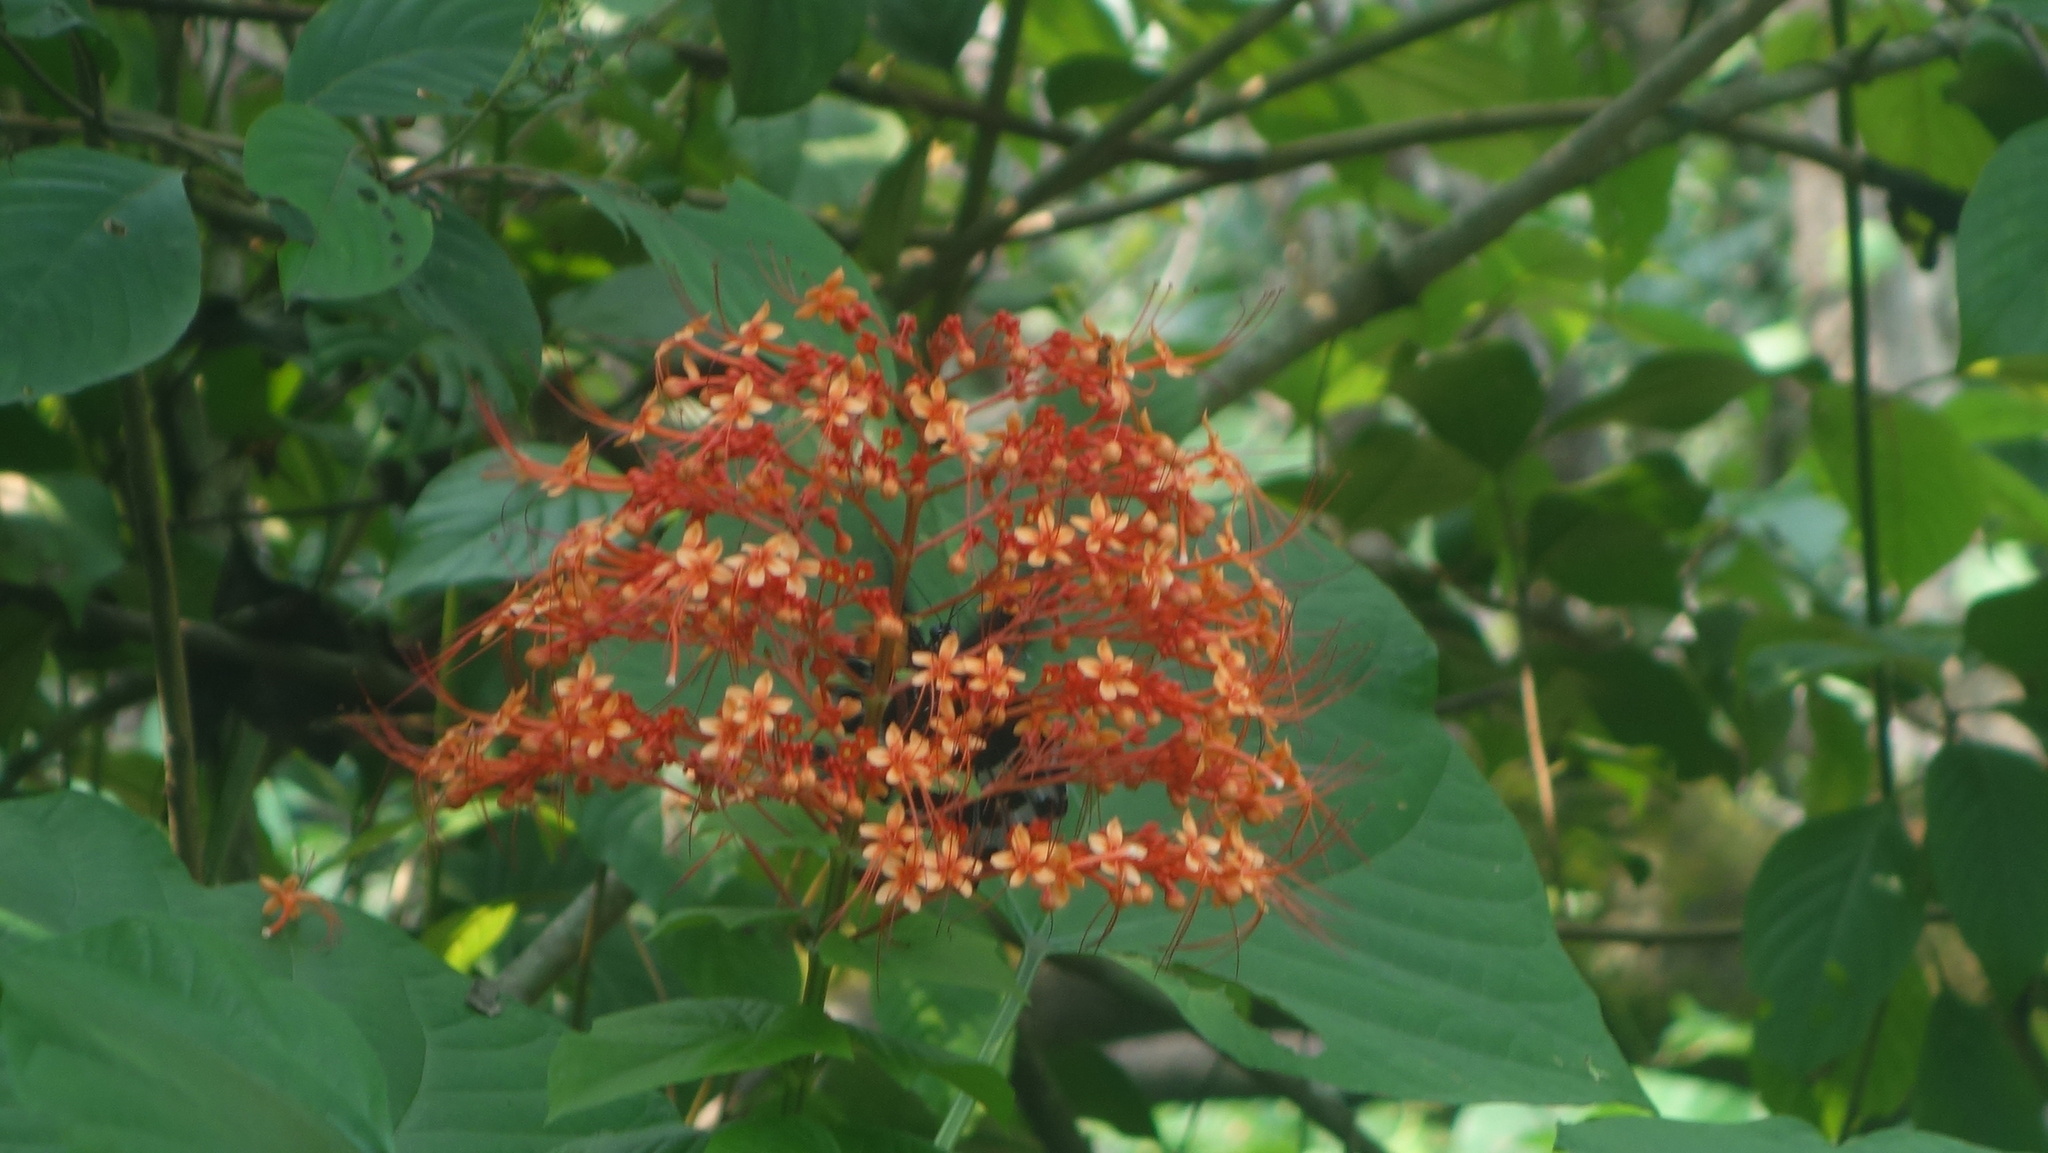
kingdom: Plantae
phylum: Tracheophyta
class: Magnoliopsida
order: Lamiales
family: Lamiaceae
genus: Clerodendrum
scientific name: Clerodendrum paniculatum
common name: Pagoda-flower
